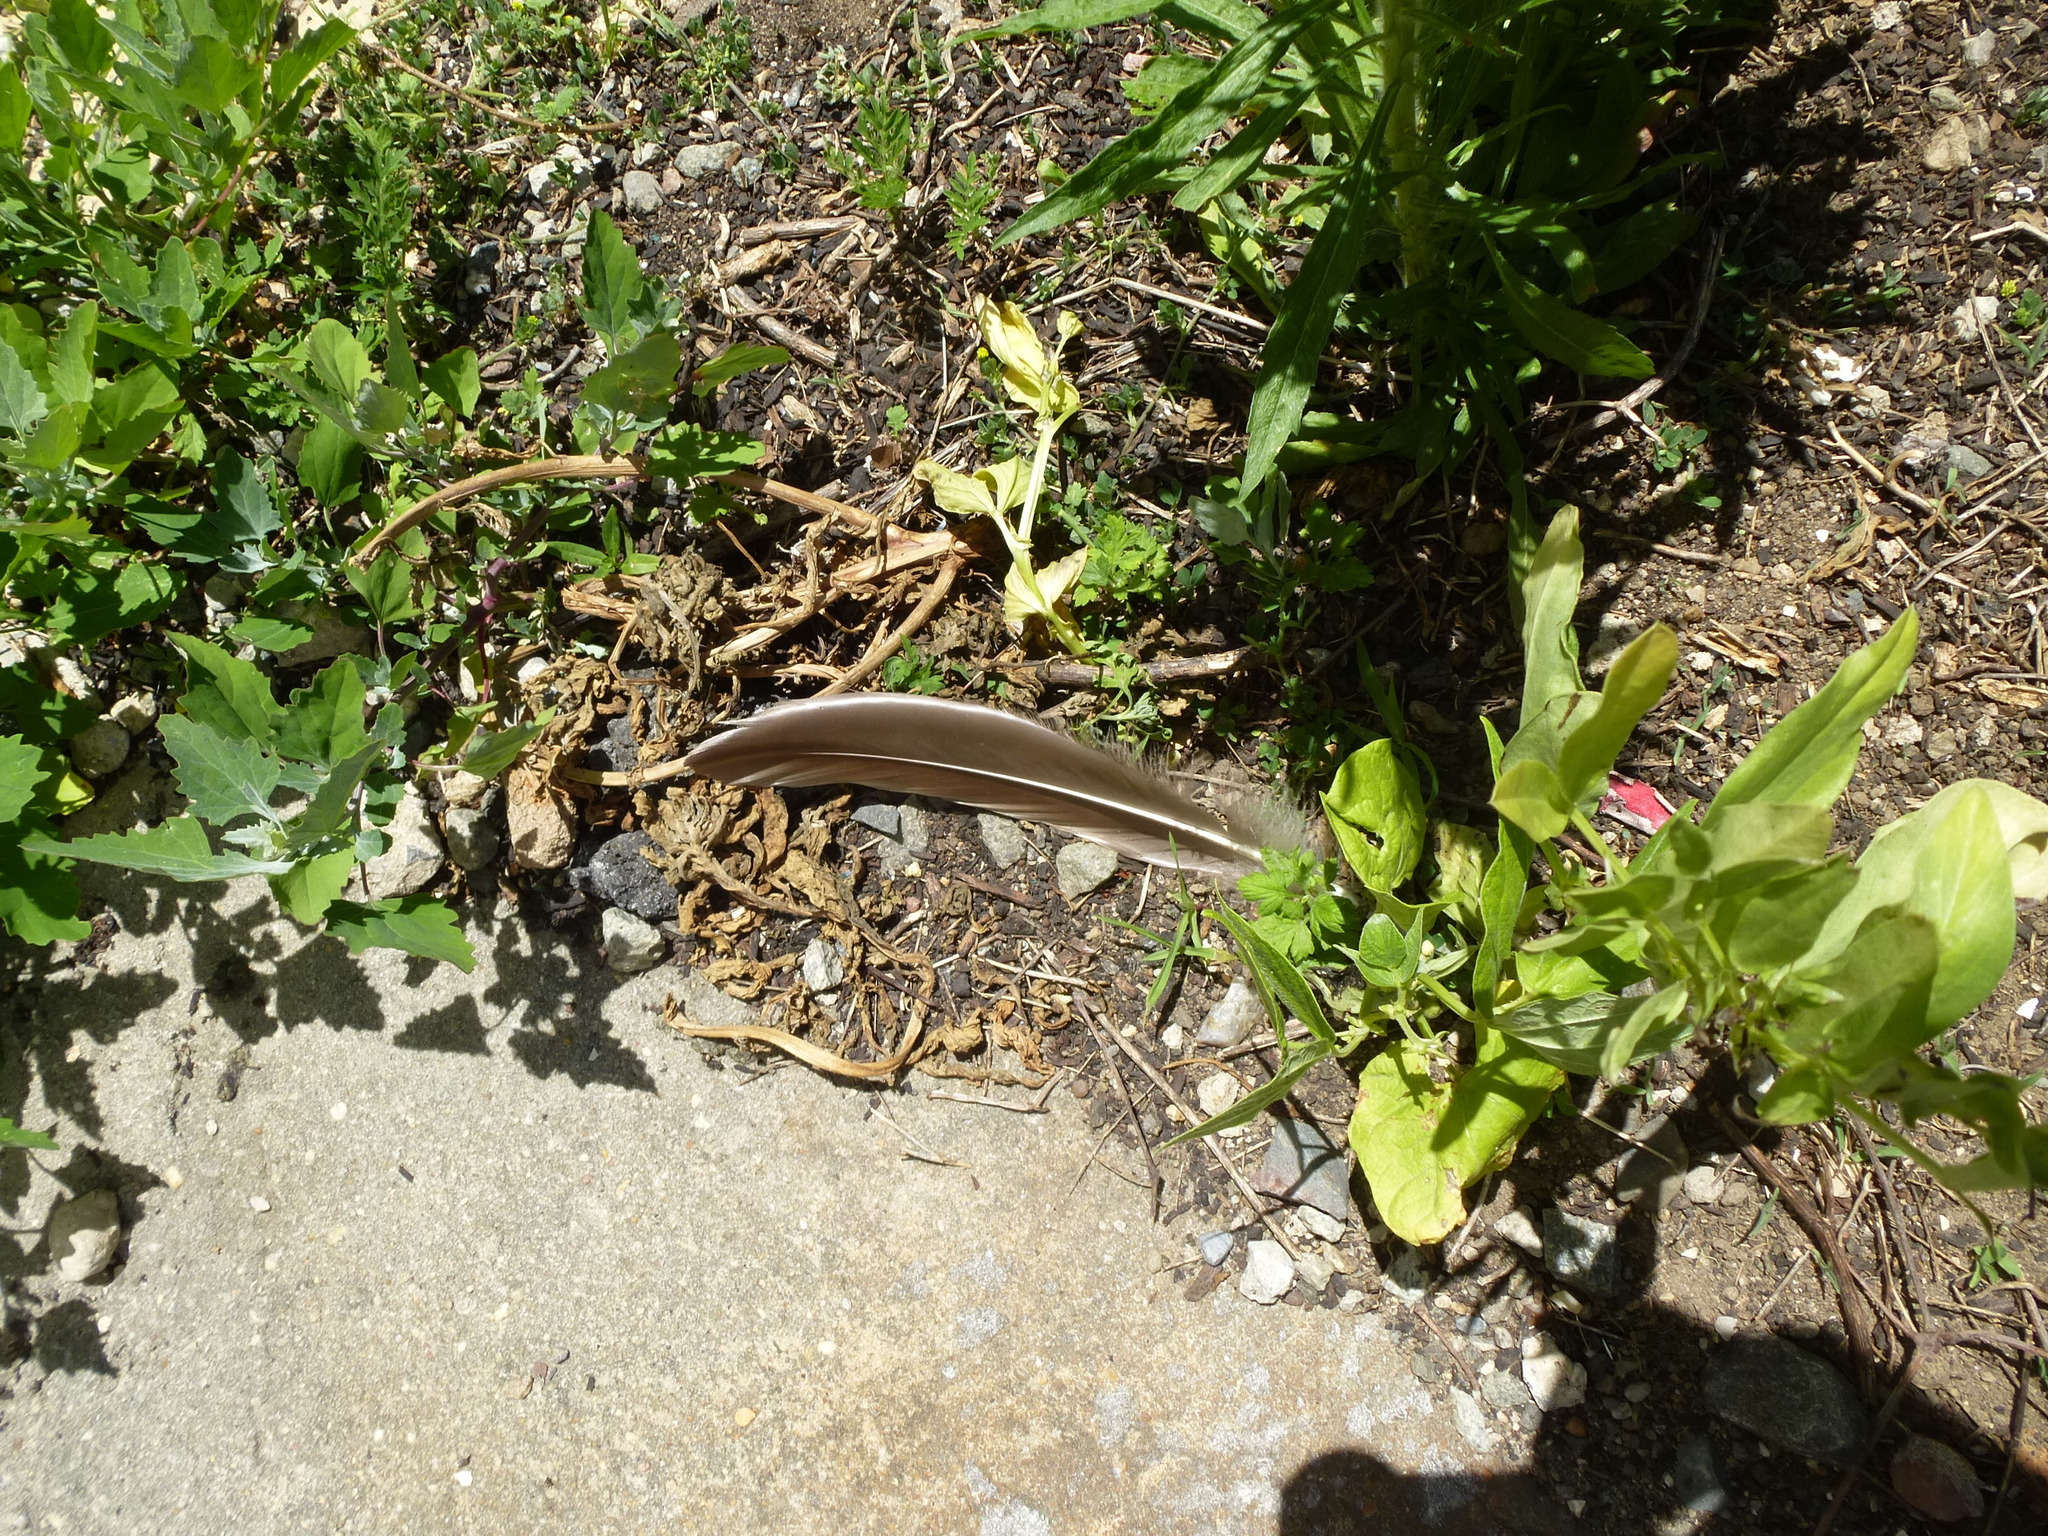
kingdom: Animalia
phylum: Chordata
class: Aves
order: Anseriformes
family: Anatidae
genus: Branta
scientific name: Branta canadensis
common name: Canada goose
